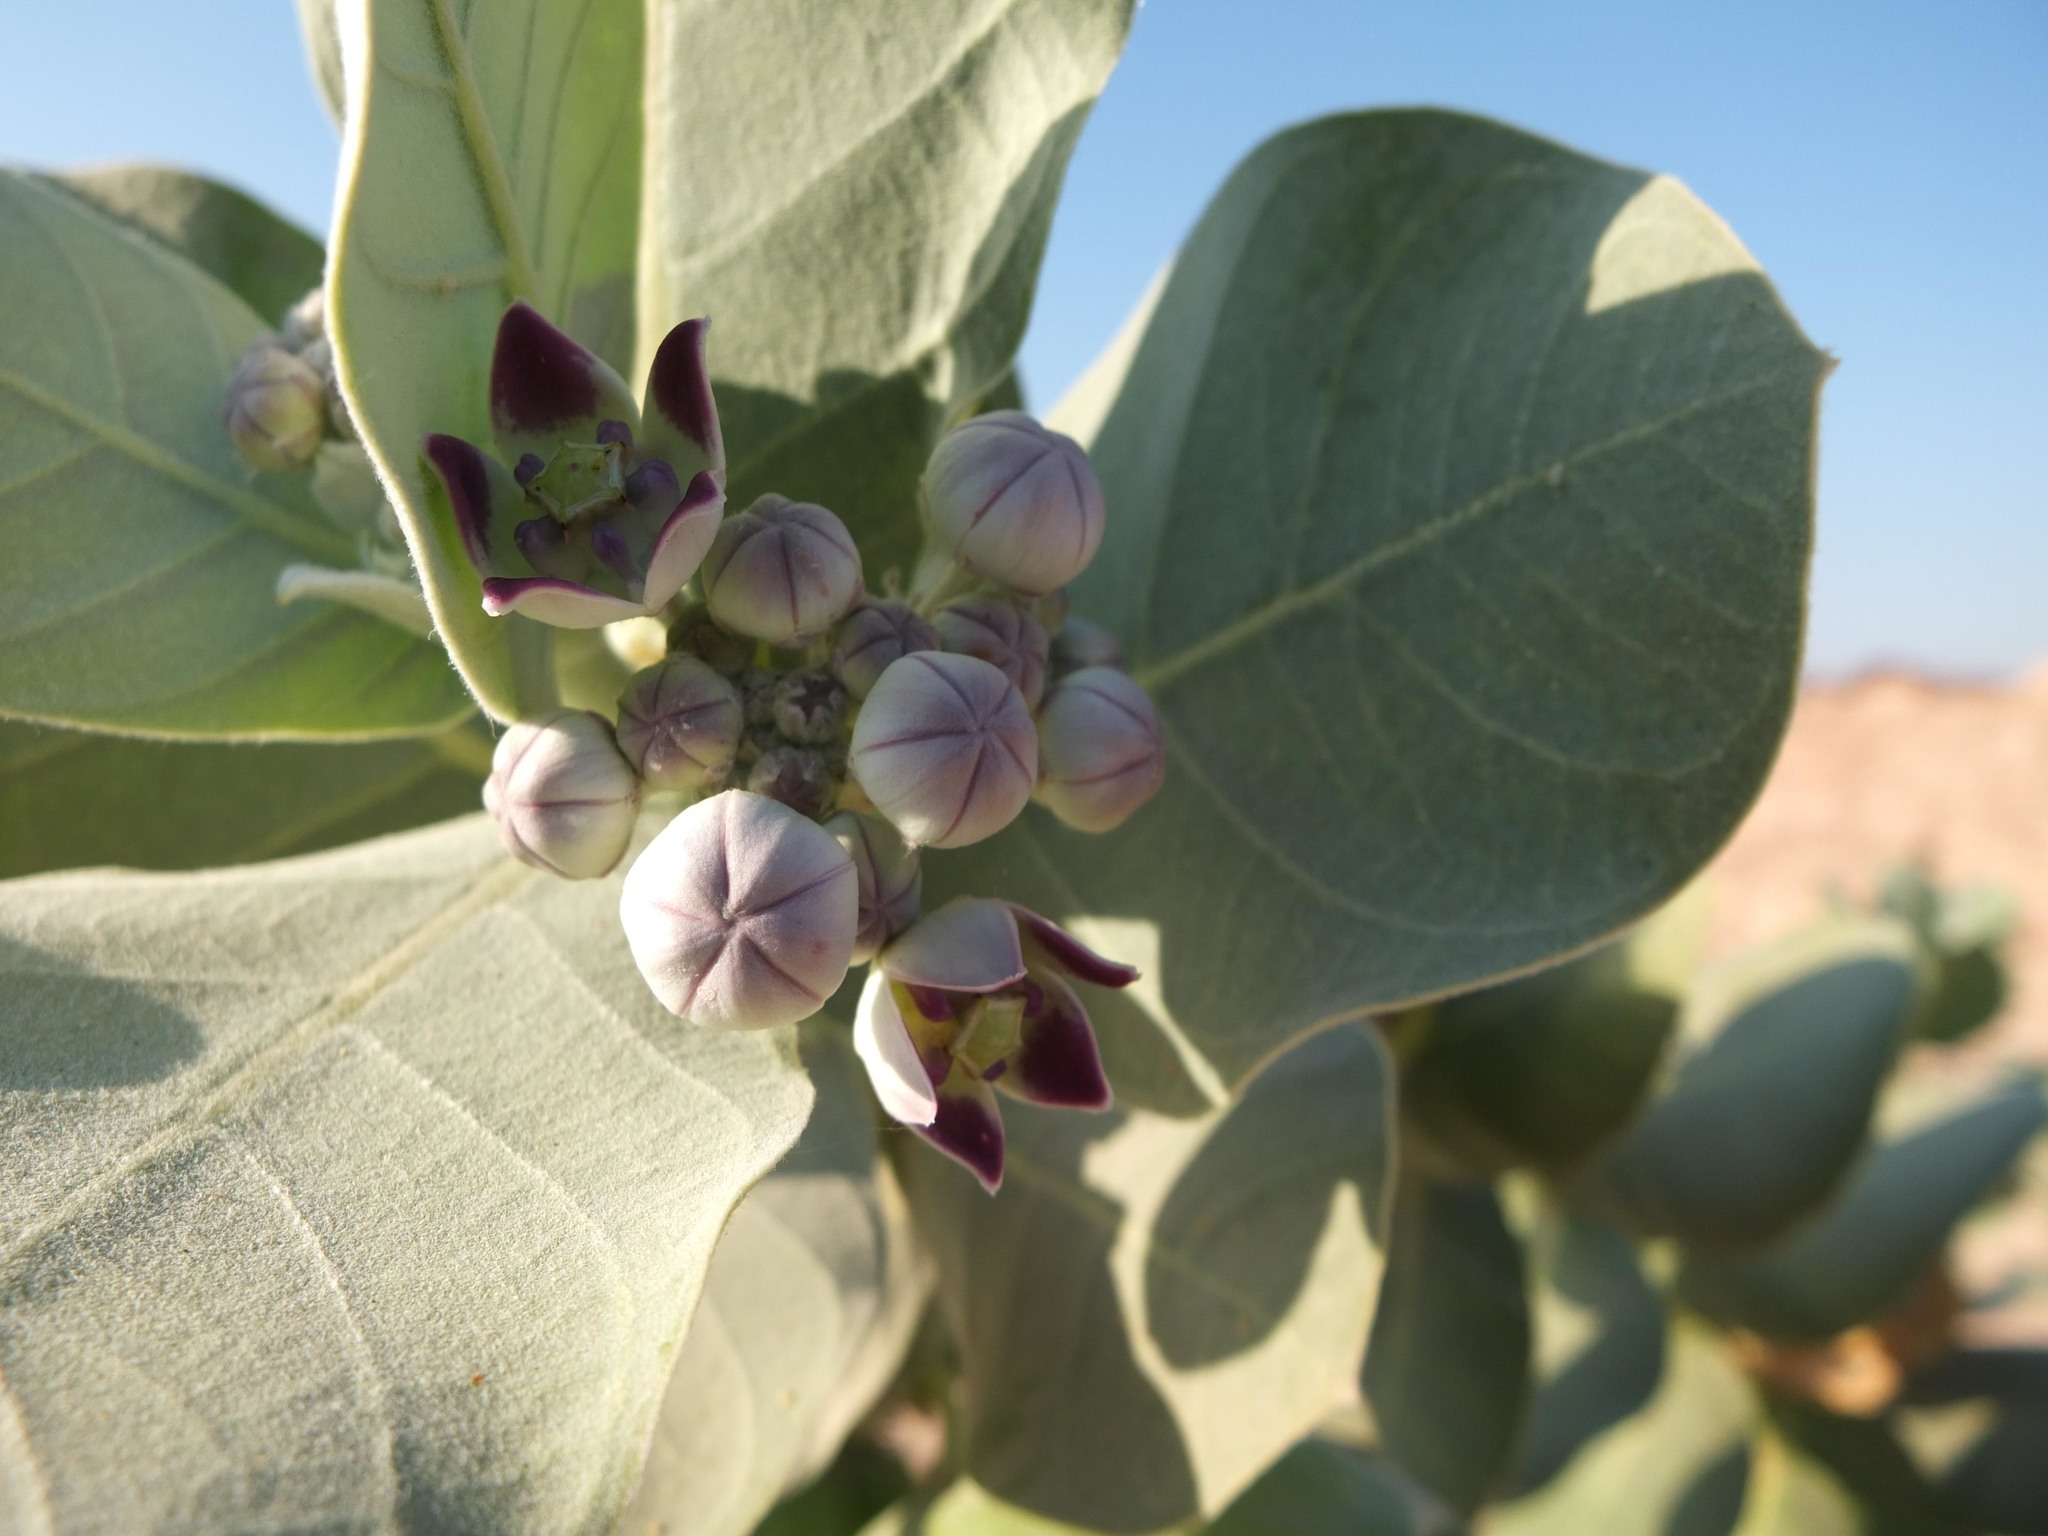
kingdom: Plantae
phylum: Tracheophyta
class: Magnoliopsida
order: Gentianales
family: Apocynaceae
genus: Calotropis
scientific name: Calotropis procera
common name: Roostertree
